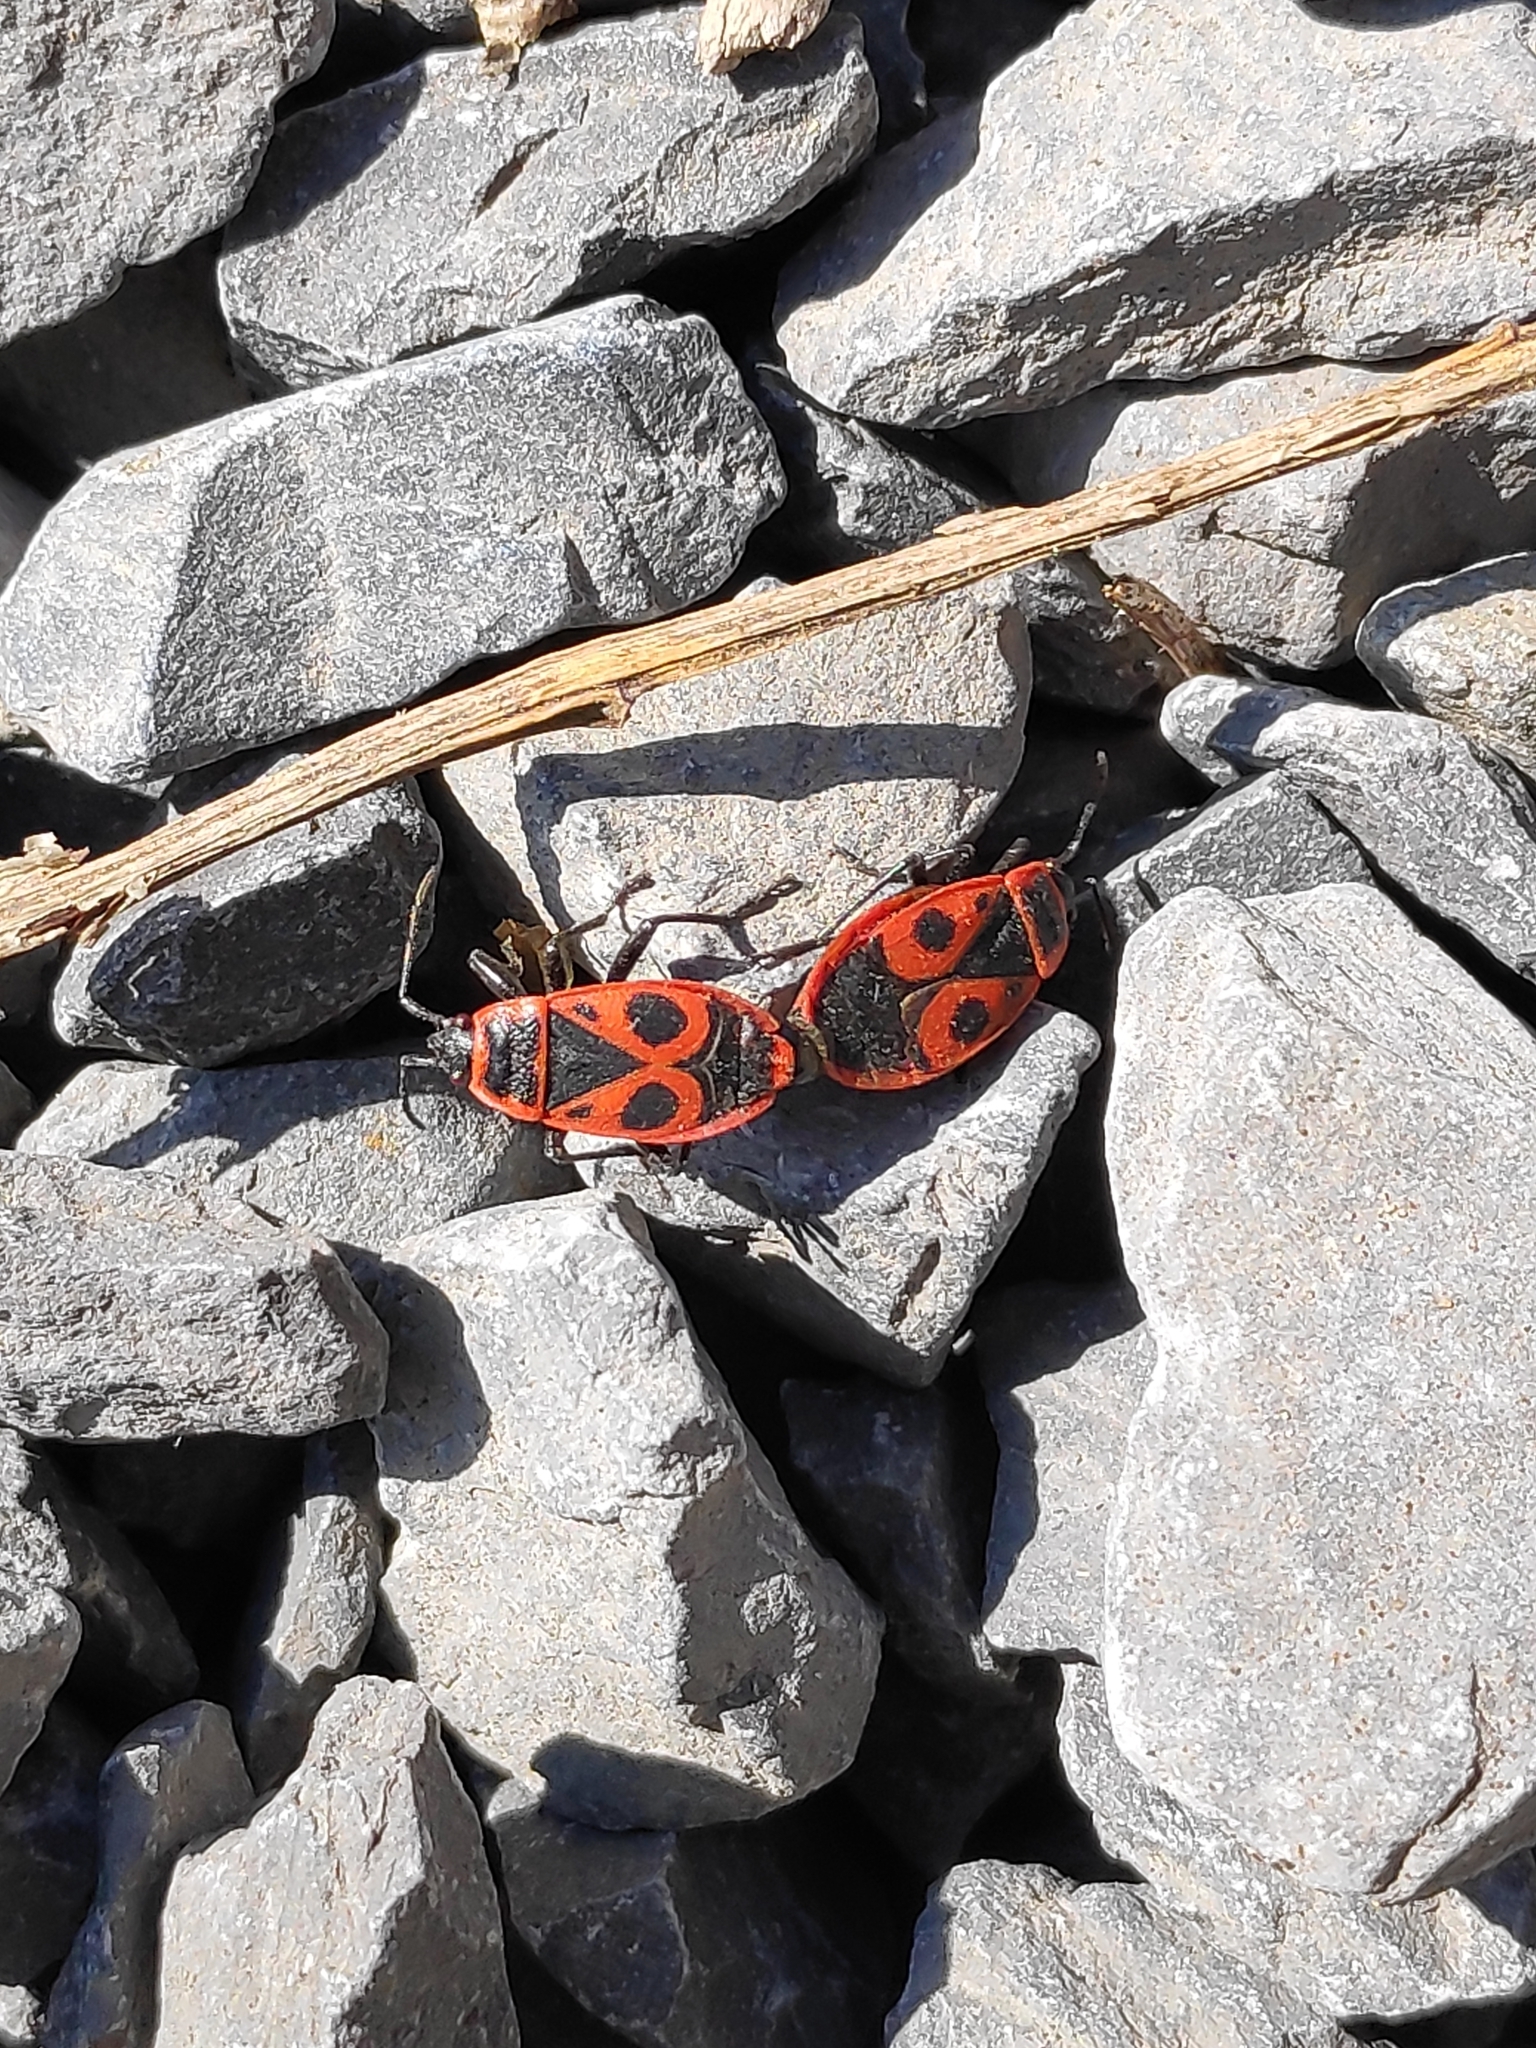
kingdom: Animalia
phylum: Arthropoda
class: Insecta
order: Hemiptera
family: Pyrrhocoridae
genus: Pyrrhocoris
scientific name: Pyrrhocoris apterus
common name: Firebug
